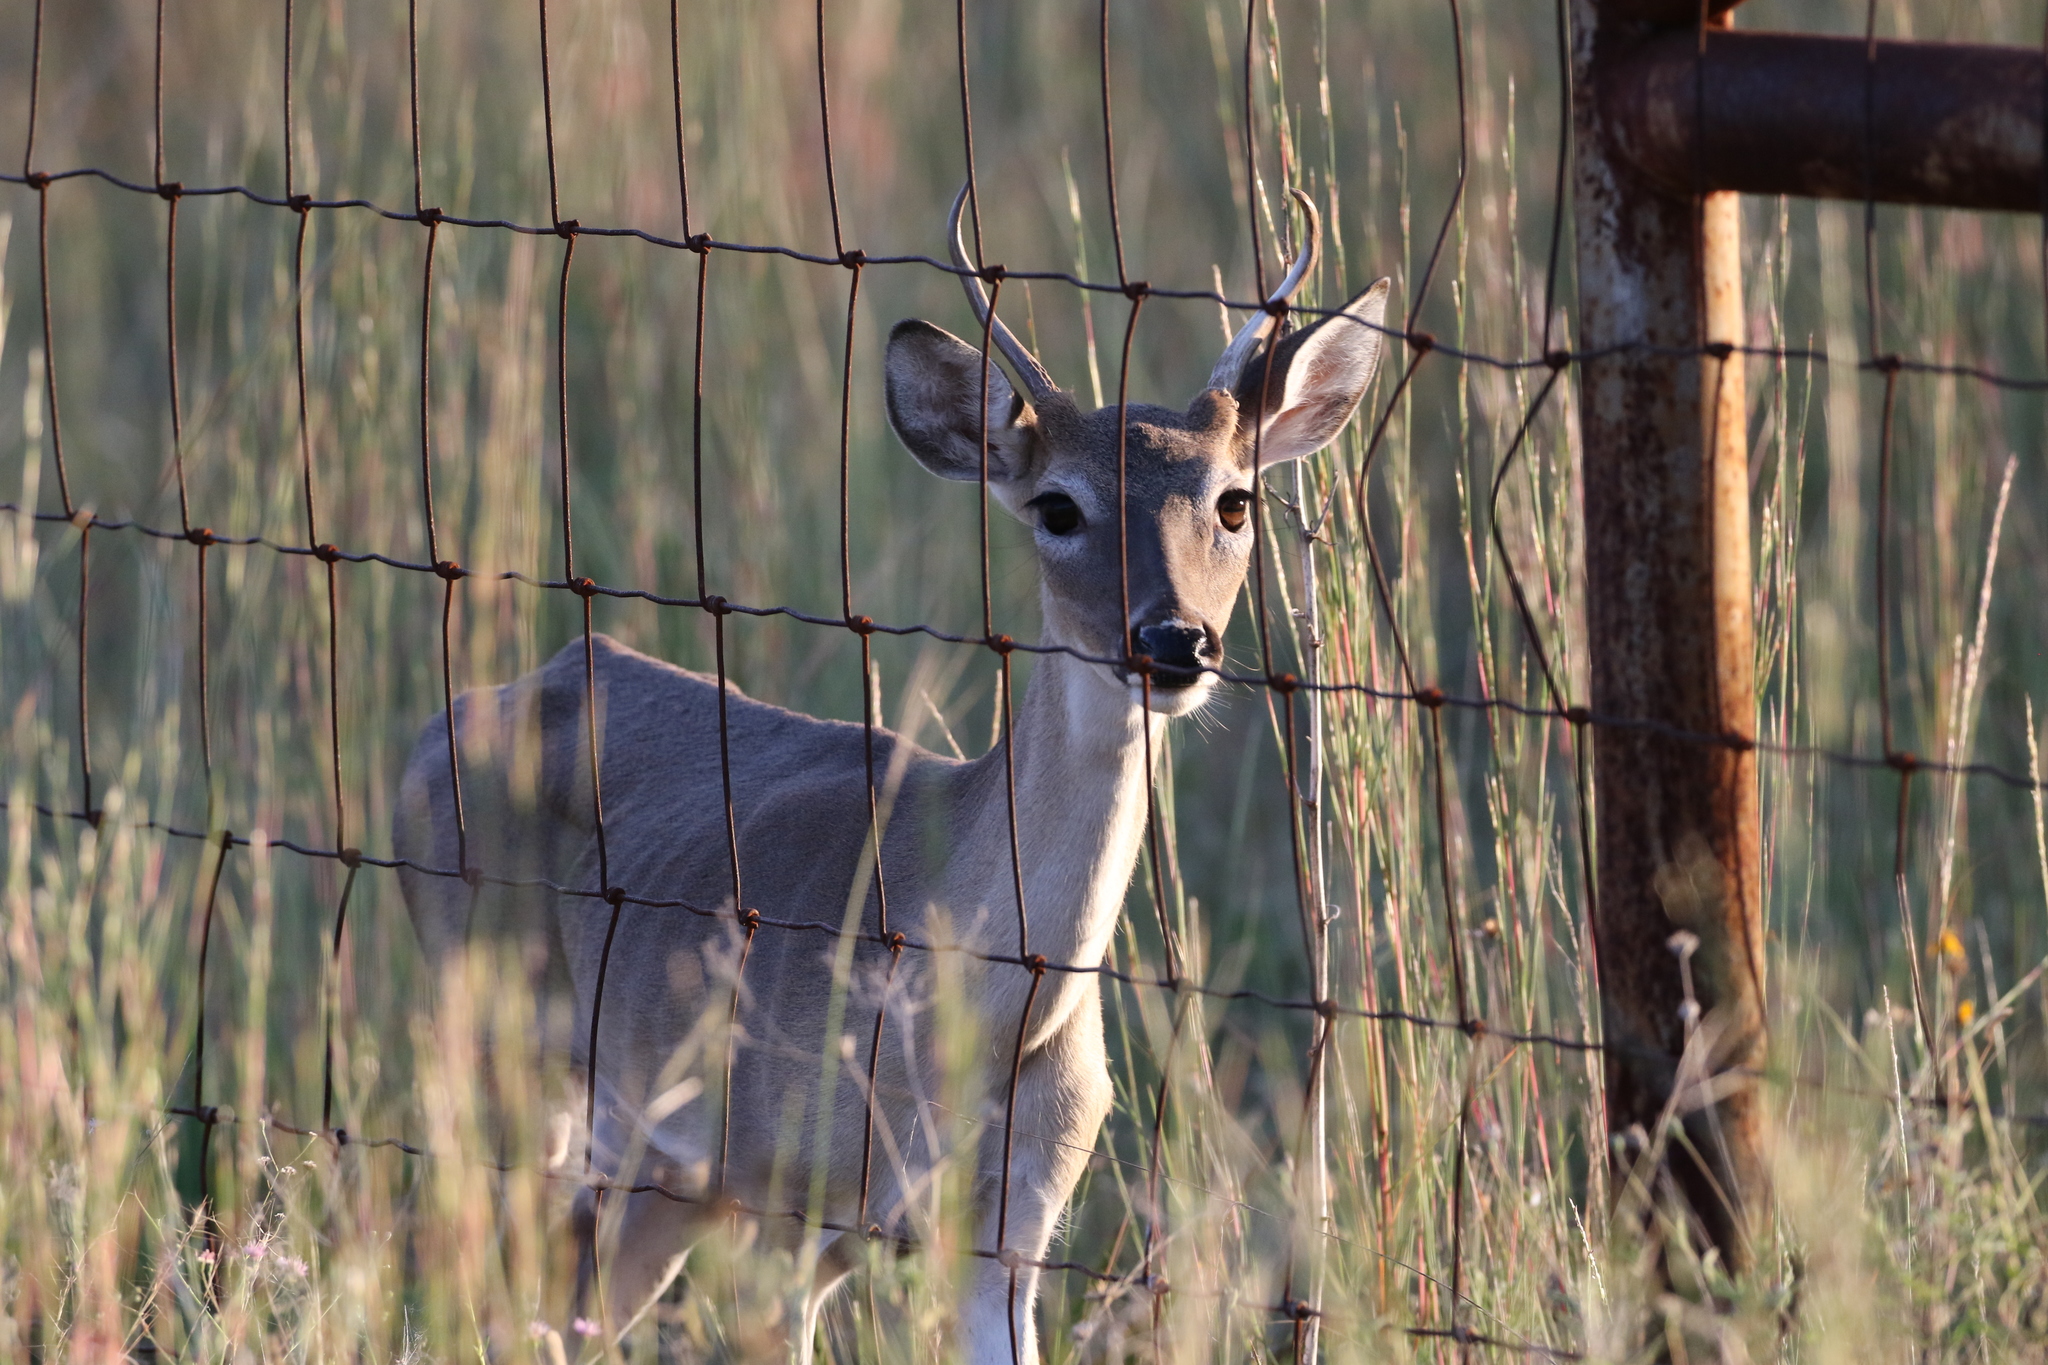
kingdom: Animalia
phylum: Chordata
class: Mammalia
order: Artiodactyla
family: Cervidae
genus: Odocoileus
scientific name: Odocoileus virginianus
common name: White-tailed deer
